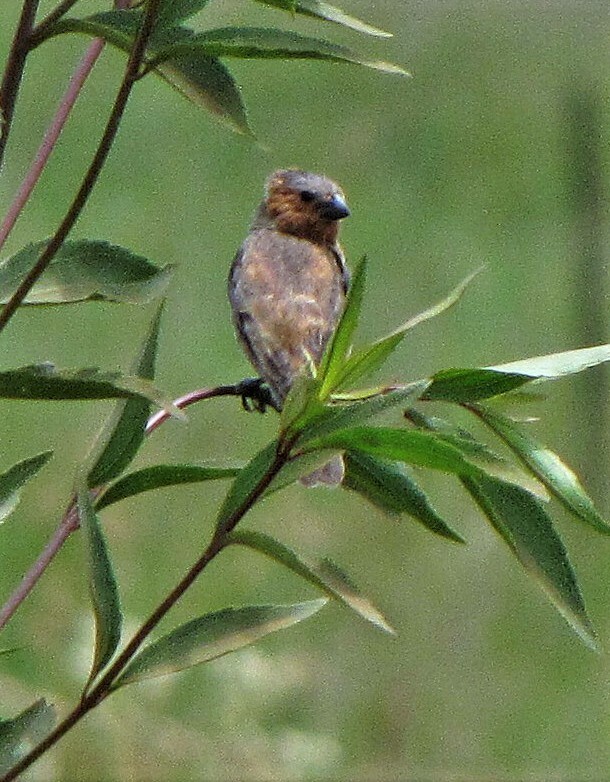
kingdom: Animalia
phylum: Chordata
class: Aves
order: Passeriformes
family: Thraupidae
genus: Sporophila
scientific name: Sporophila cinnamomea
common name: Chestnut seedeater
